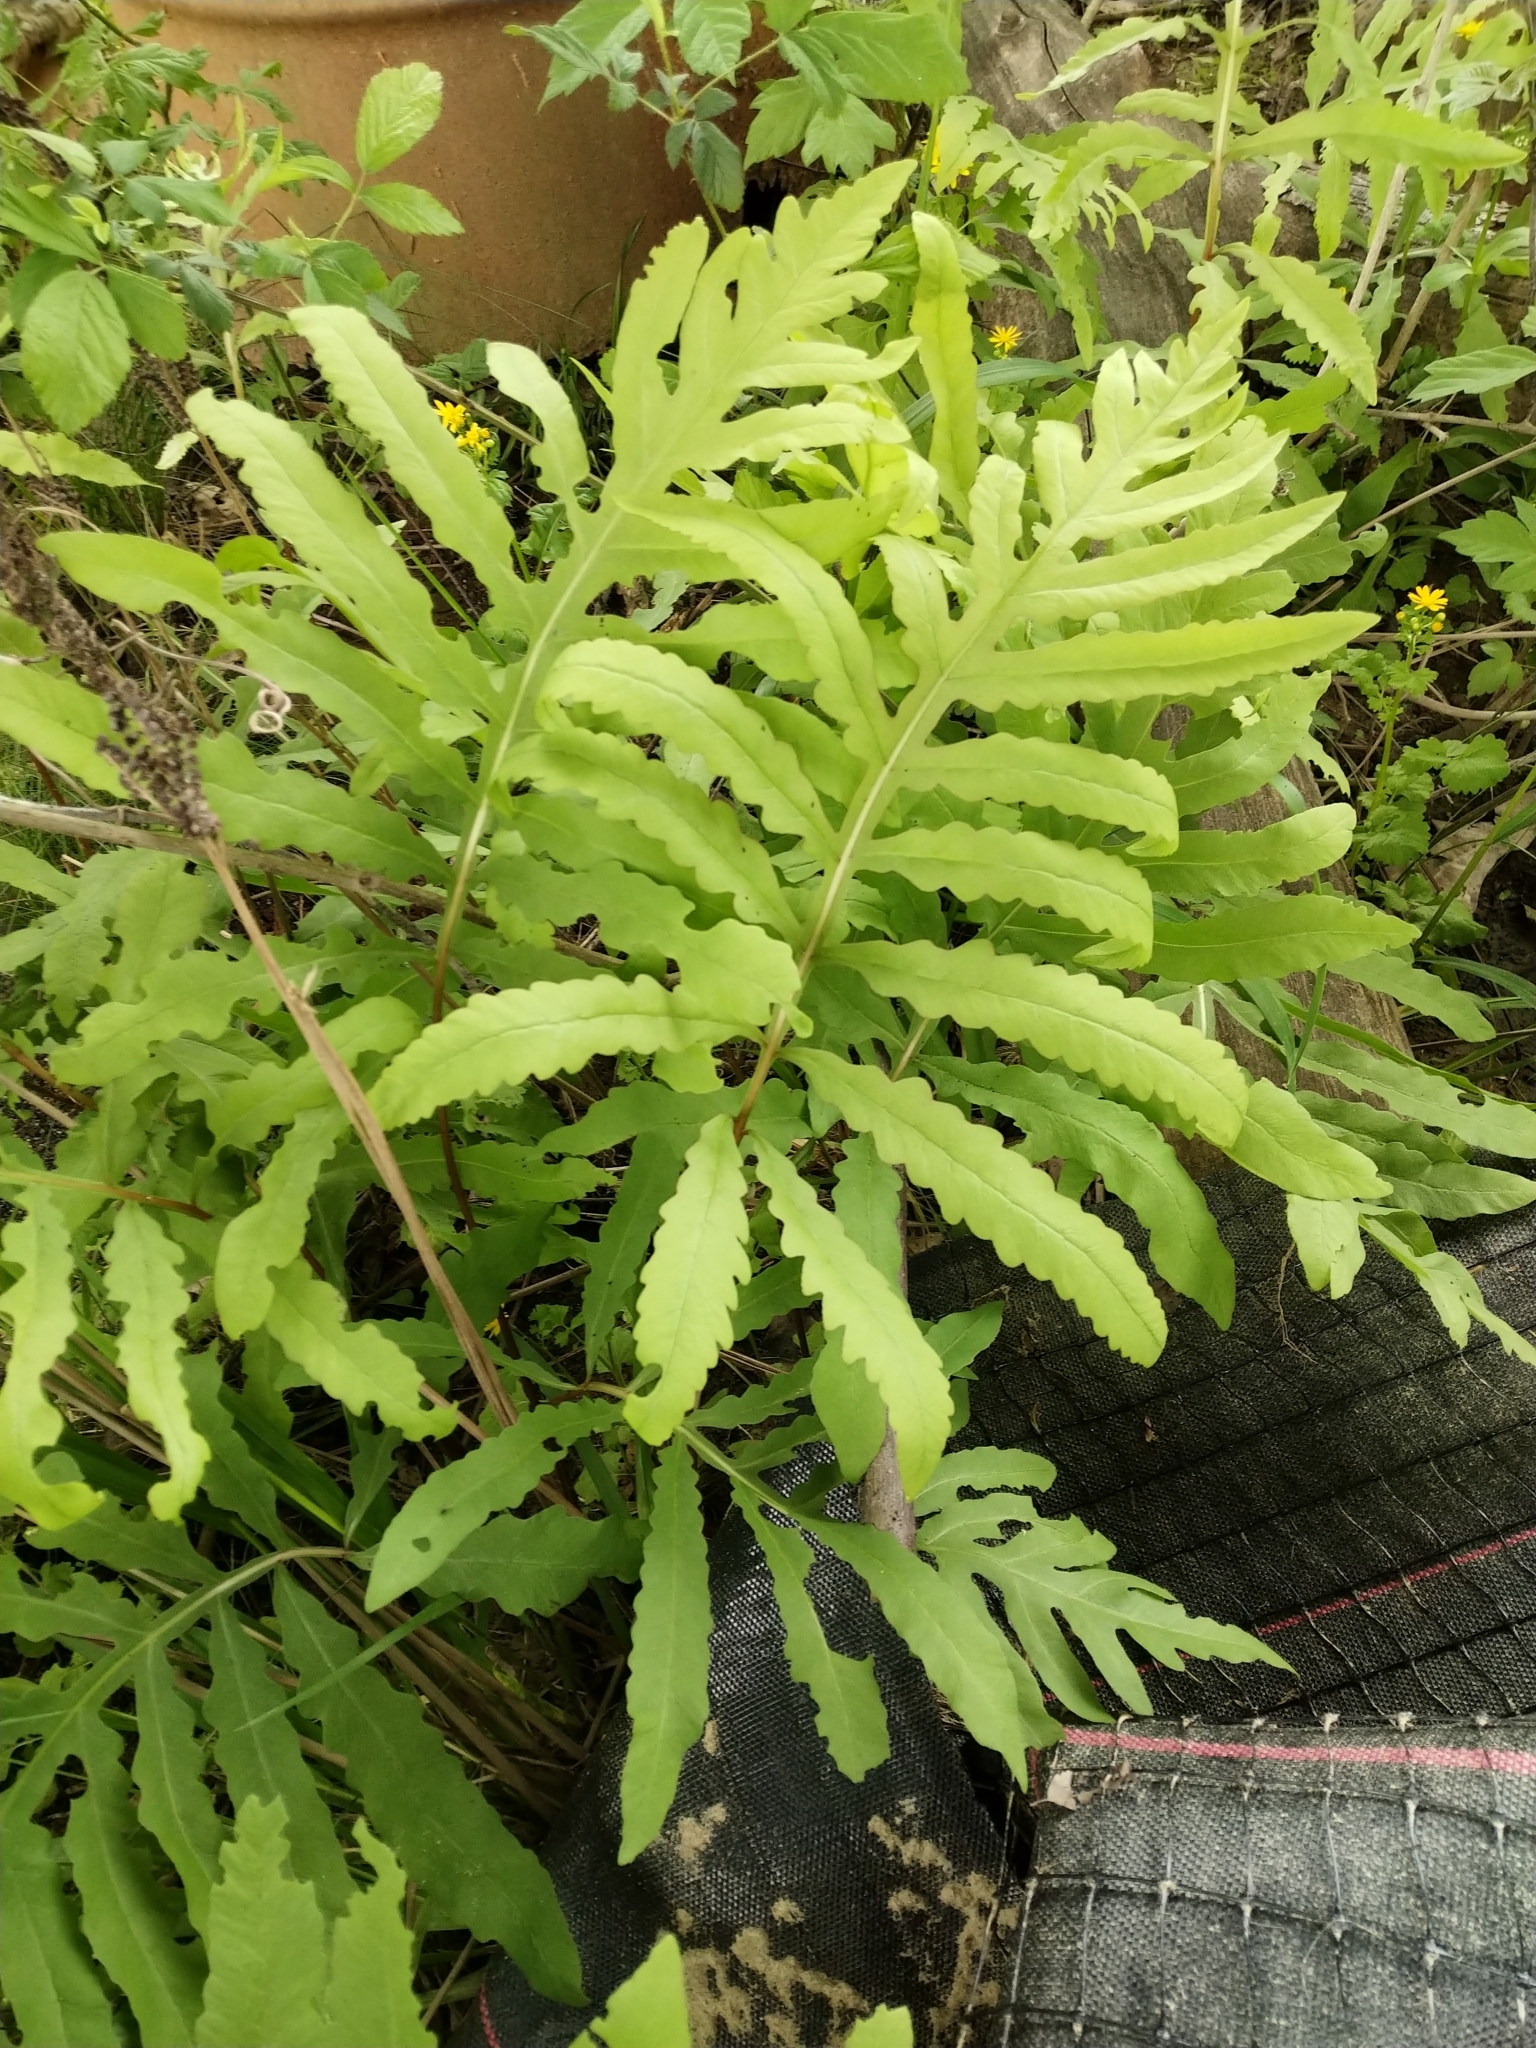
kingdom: Plantae
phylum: Tracheophyta
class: Polypodiopsida
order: Polypodiales
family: Onocleaceae
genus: Onoclea
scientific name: Onoclea sensibilis
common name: Sensitive fern
